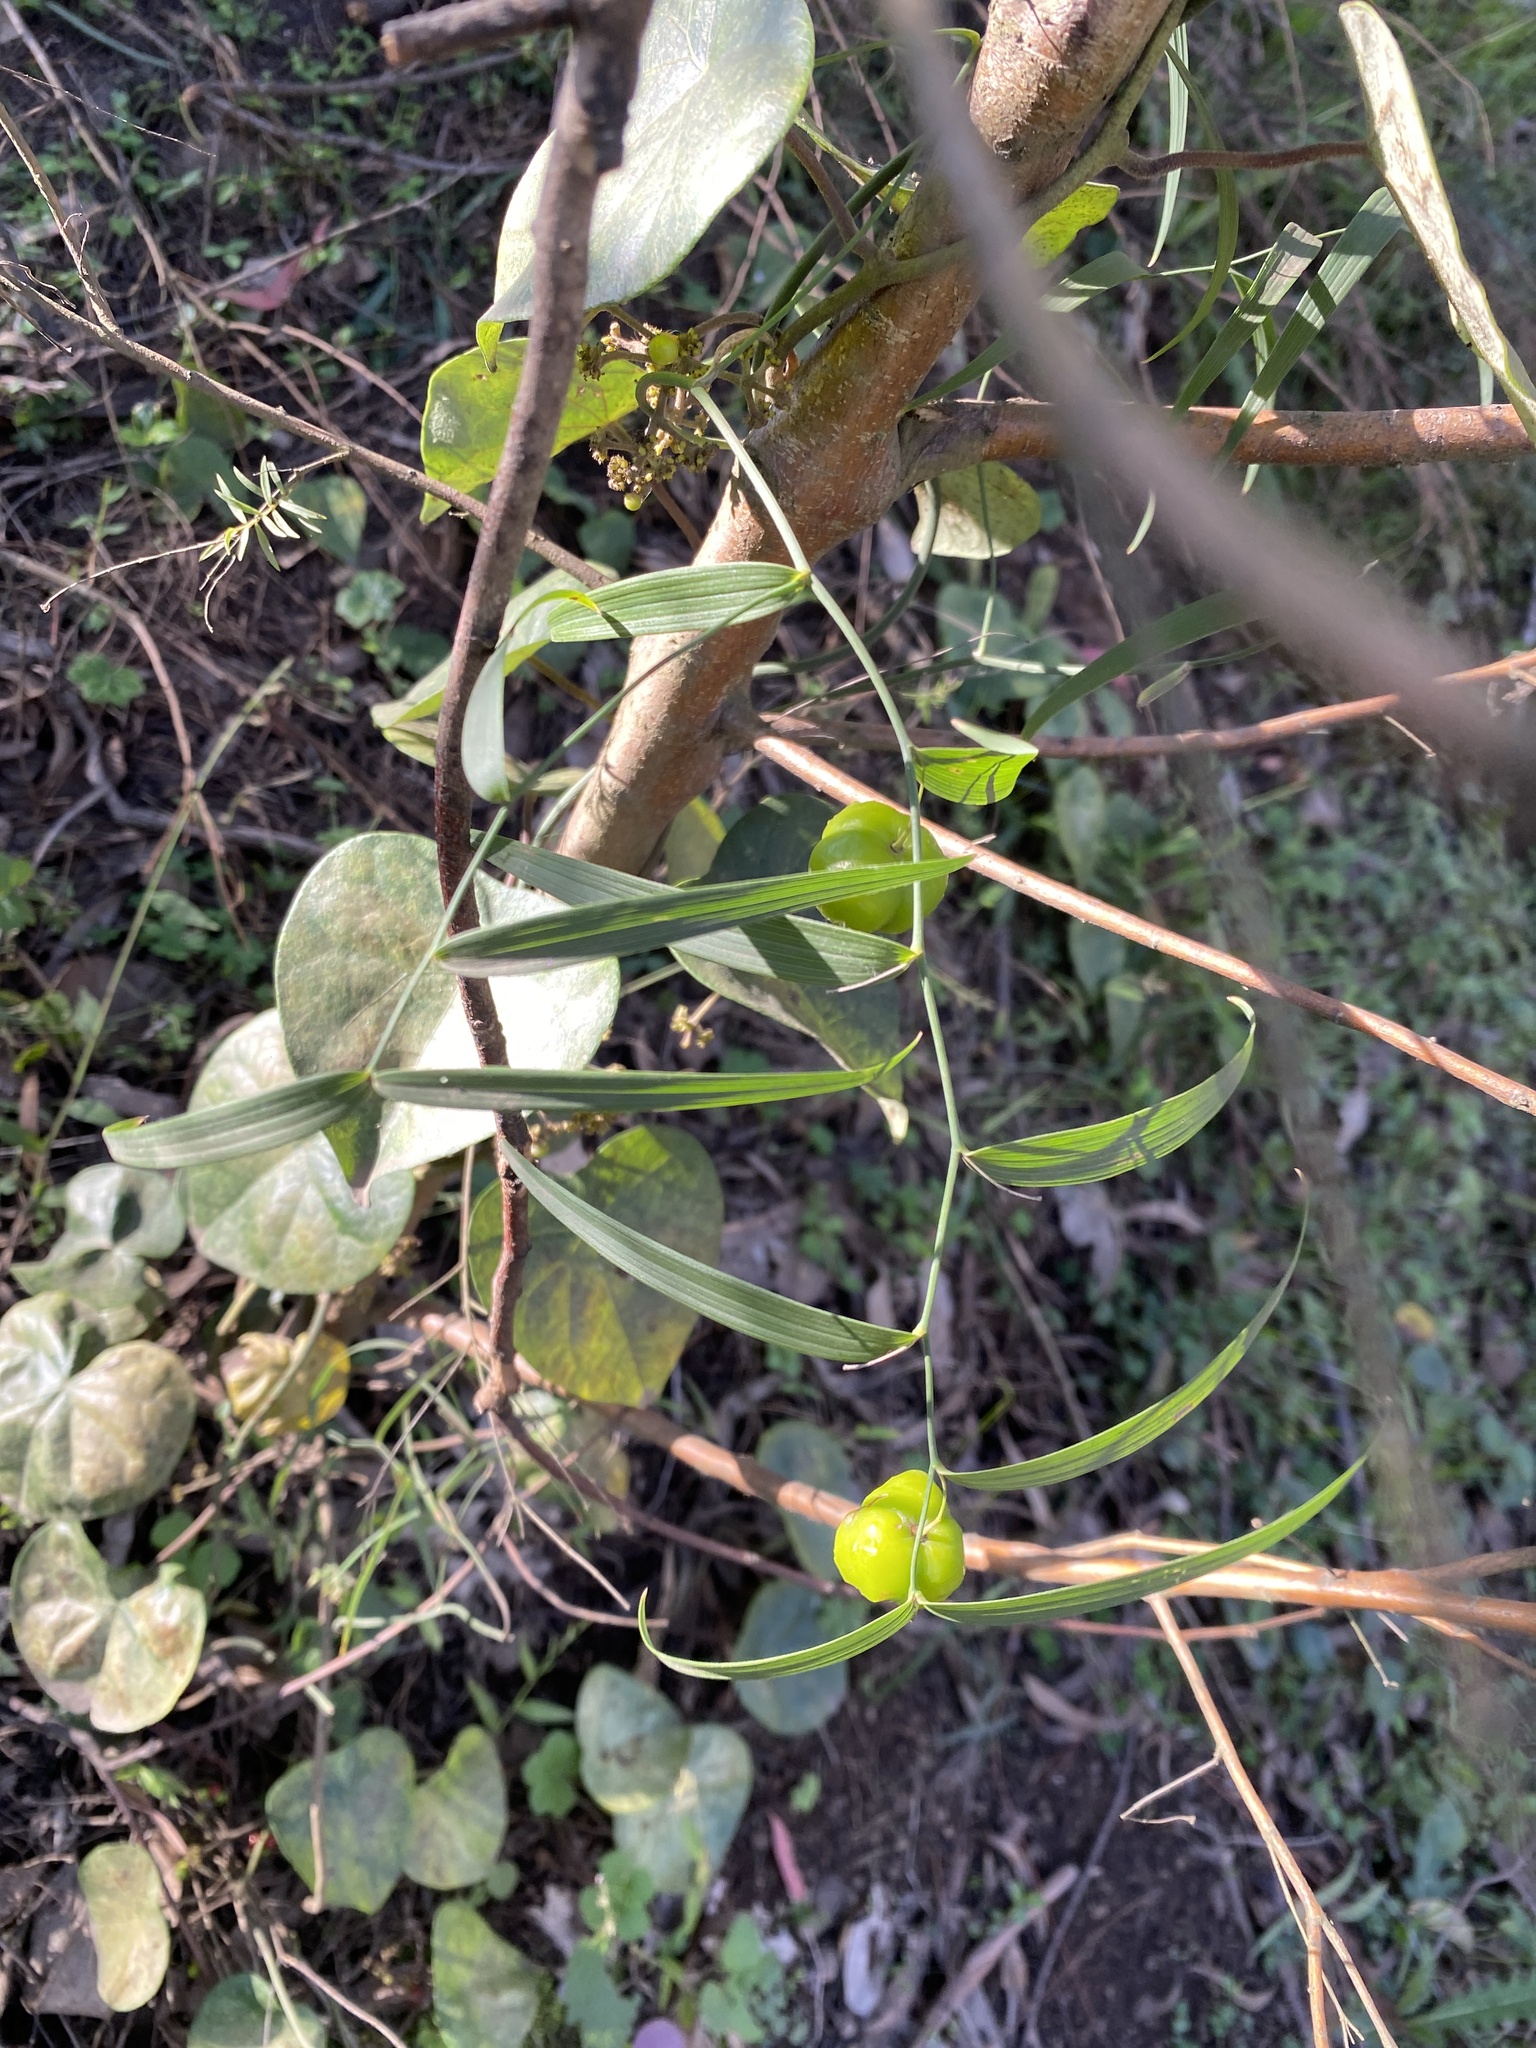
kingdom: Plantae
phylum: Tracheophyta
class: Liliopsida
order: Asparagales
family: Asparagaceae
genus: Eustrephus
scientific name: Eustrephus latifolius
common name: Orangevine
